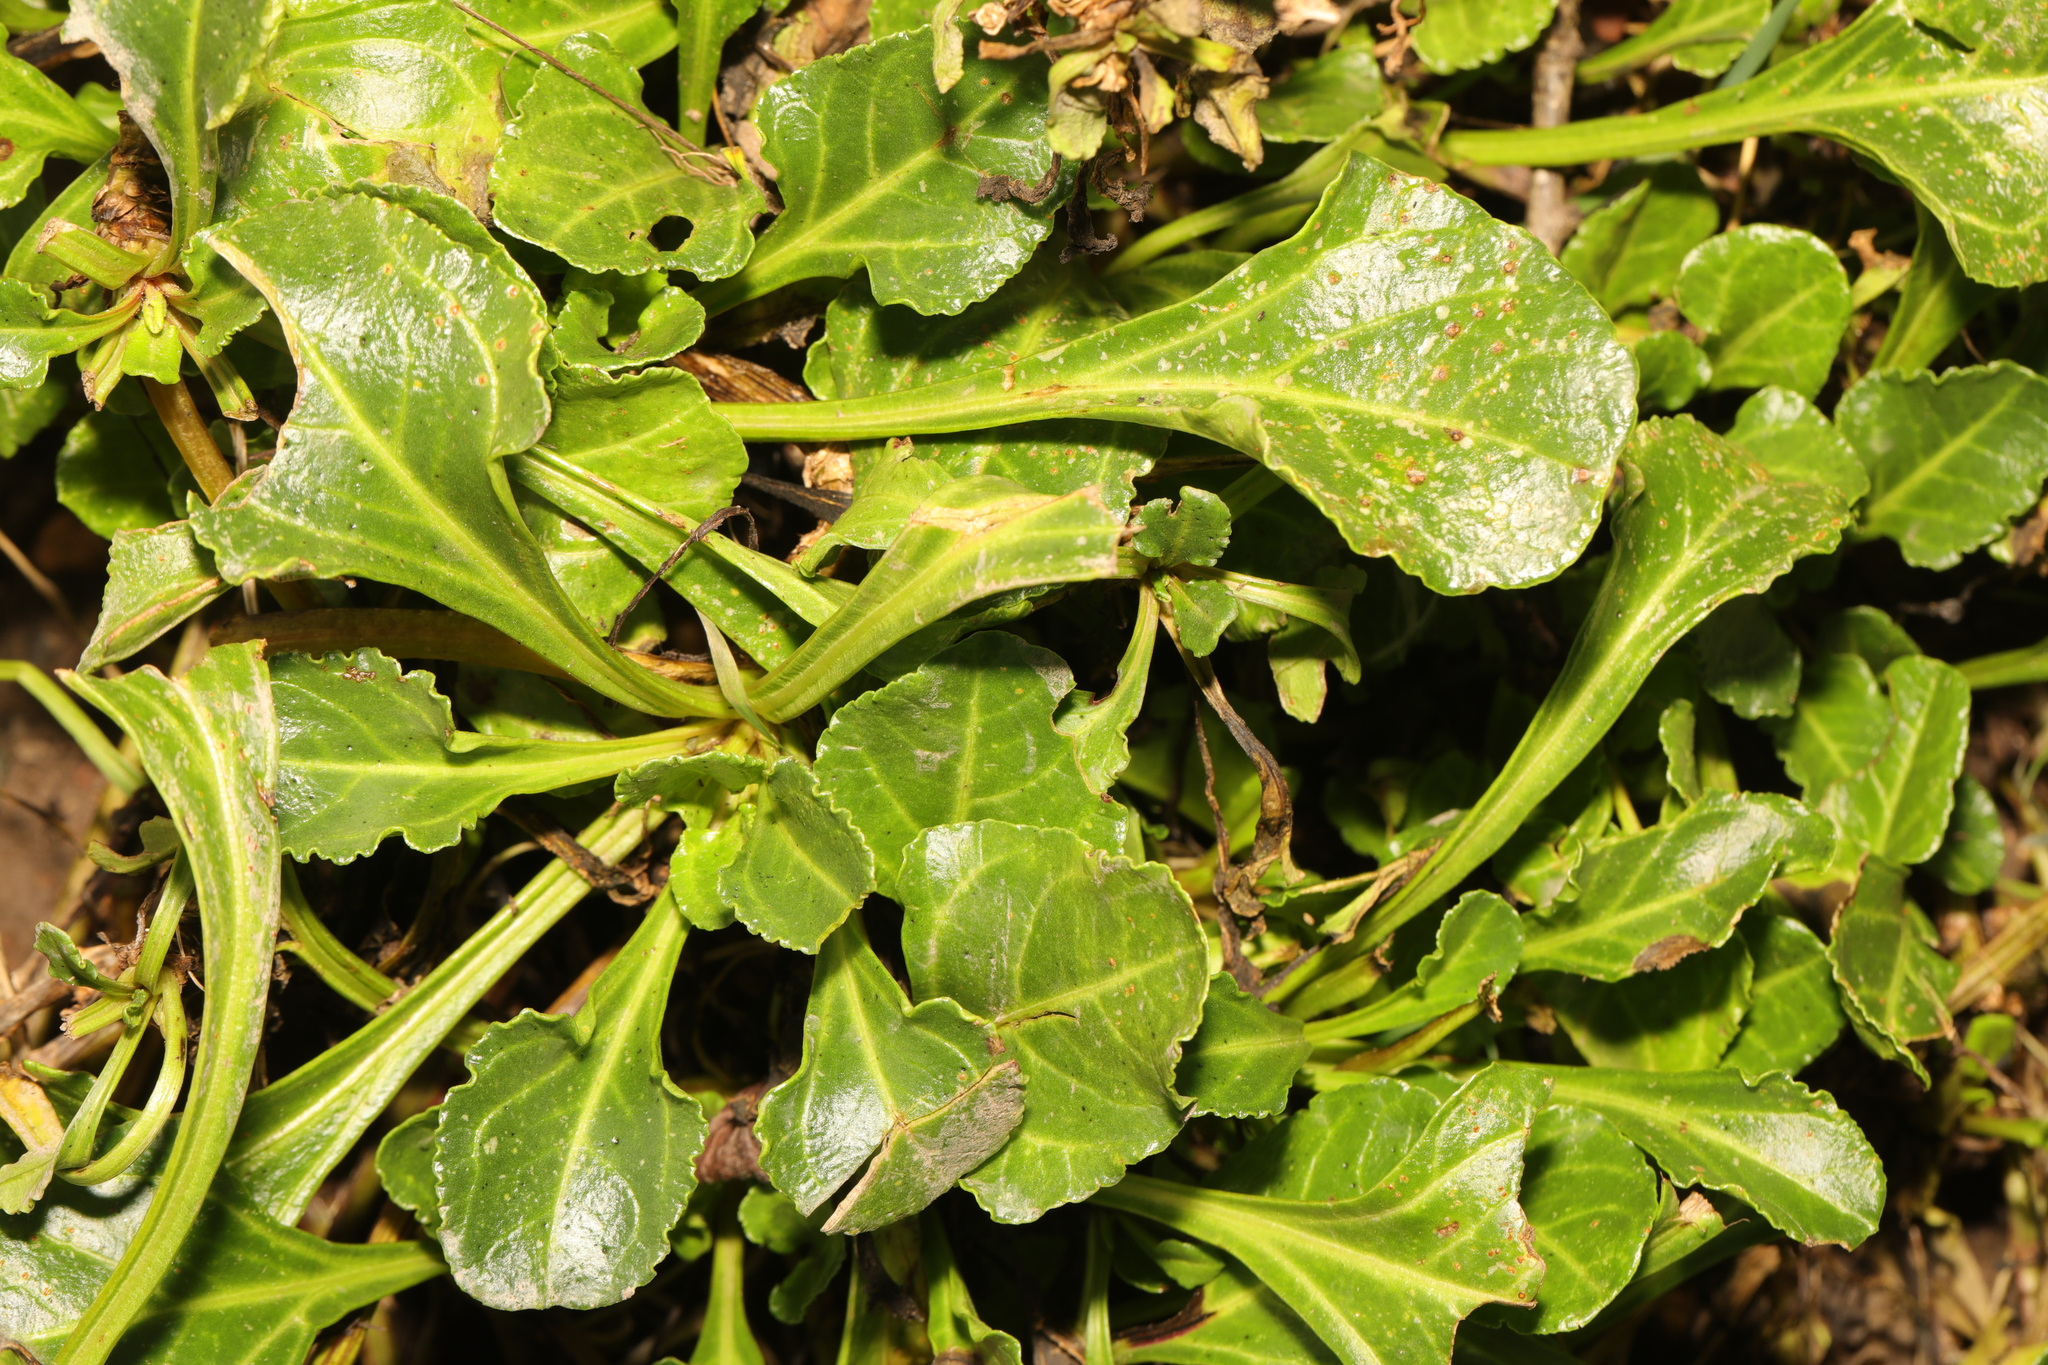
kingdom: Plantae
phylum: Tracheophyta
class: Magnoliopsida
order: Caryophyllales
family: Amaranthaceae
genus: Beta
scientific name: Beta vulgaris
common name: Beet
